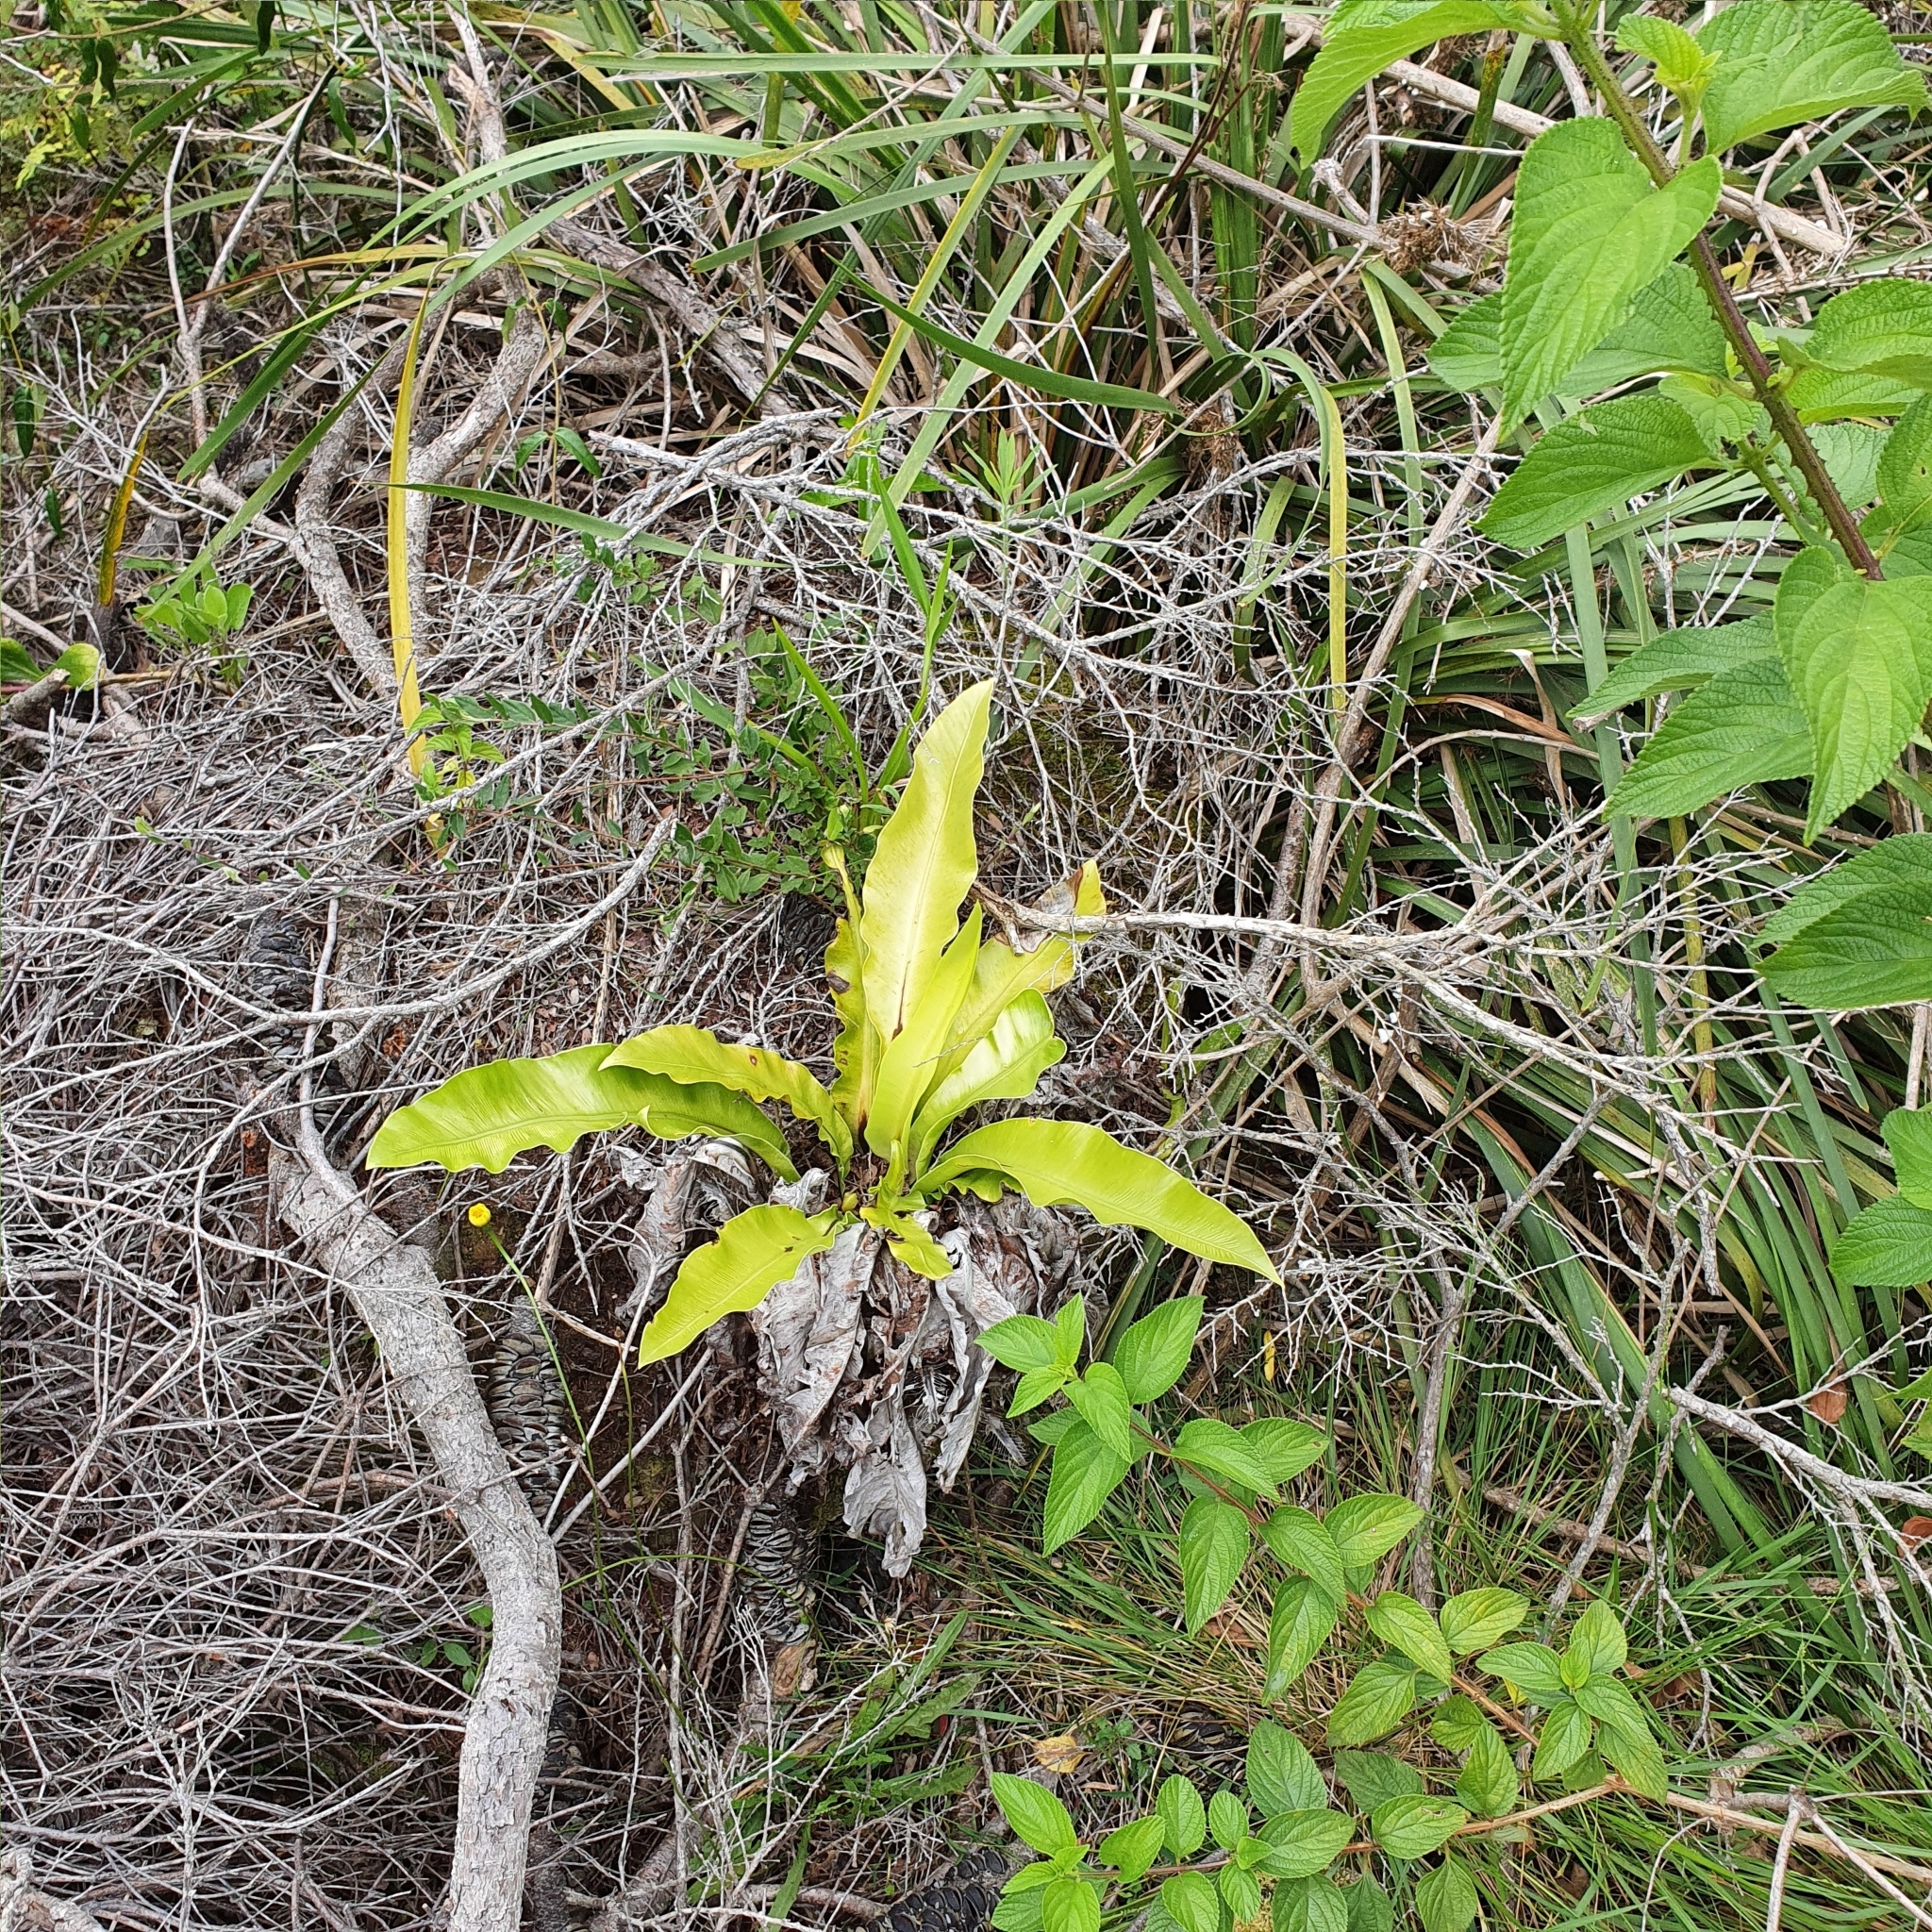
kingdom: Plantae
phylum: Tracheophyta
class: Polypodiopsida
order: Polypodiales
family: Aspleniaceae
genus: Asplenium
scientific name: Asplenium australasicum
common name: Bird's-nest fern
